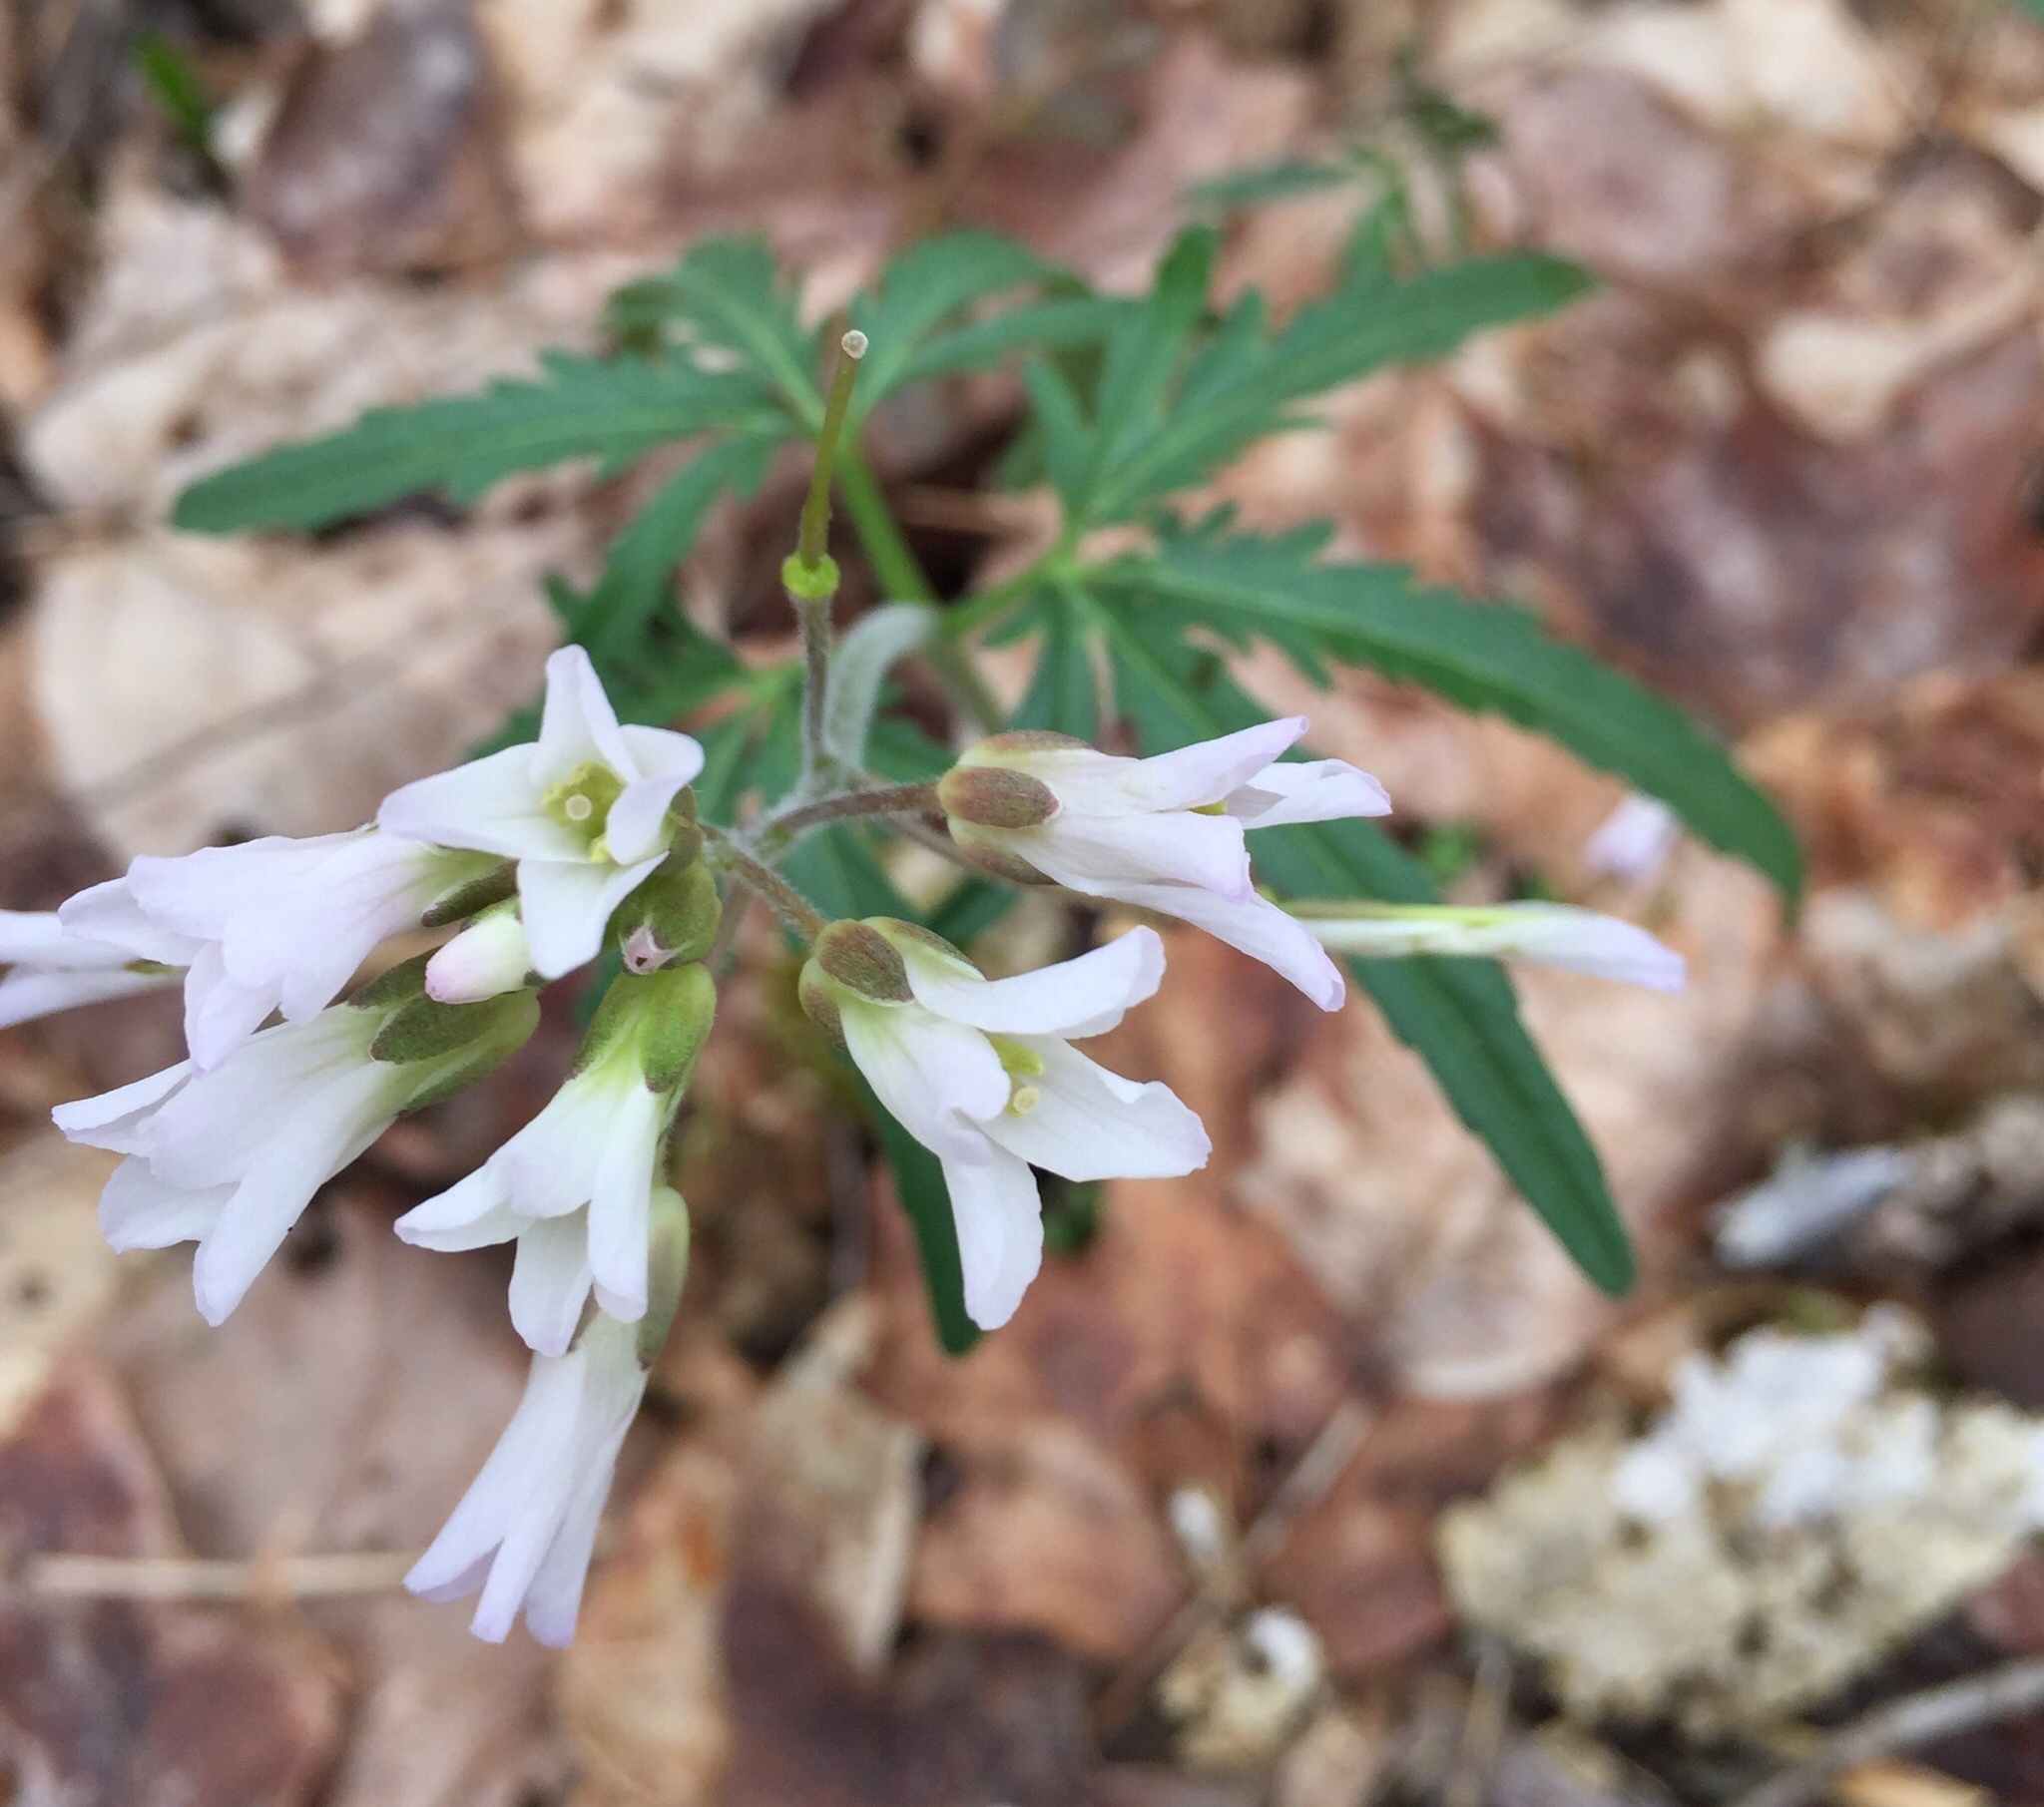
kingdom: Plantae
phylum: Tracheophyta
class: Magnoliopsida
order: Brassicales
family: Brassicaceae
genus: Cardamine
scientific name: Cardamine concatenata
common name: Cut-leaf toothcup
